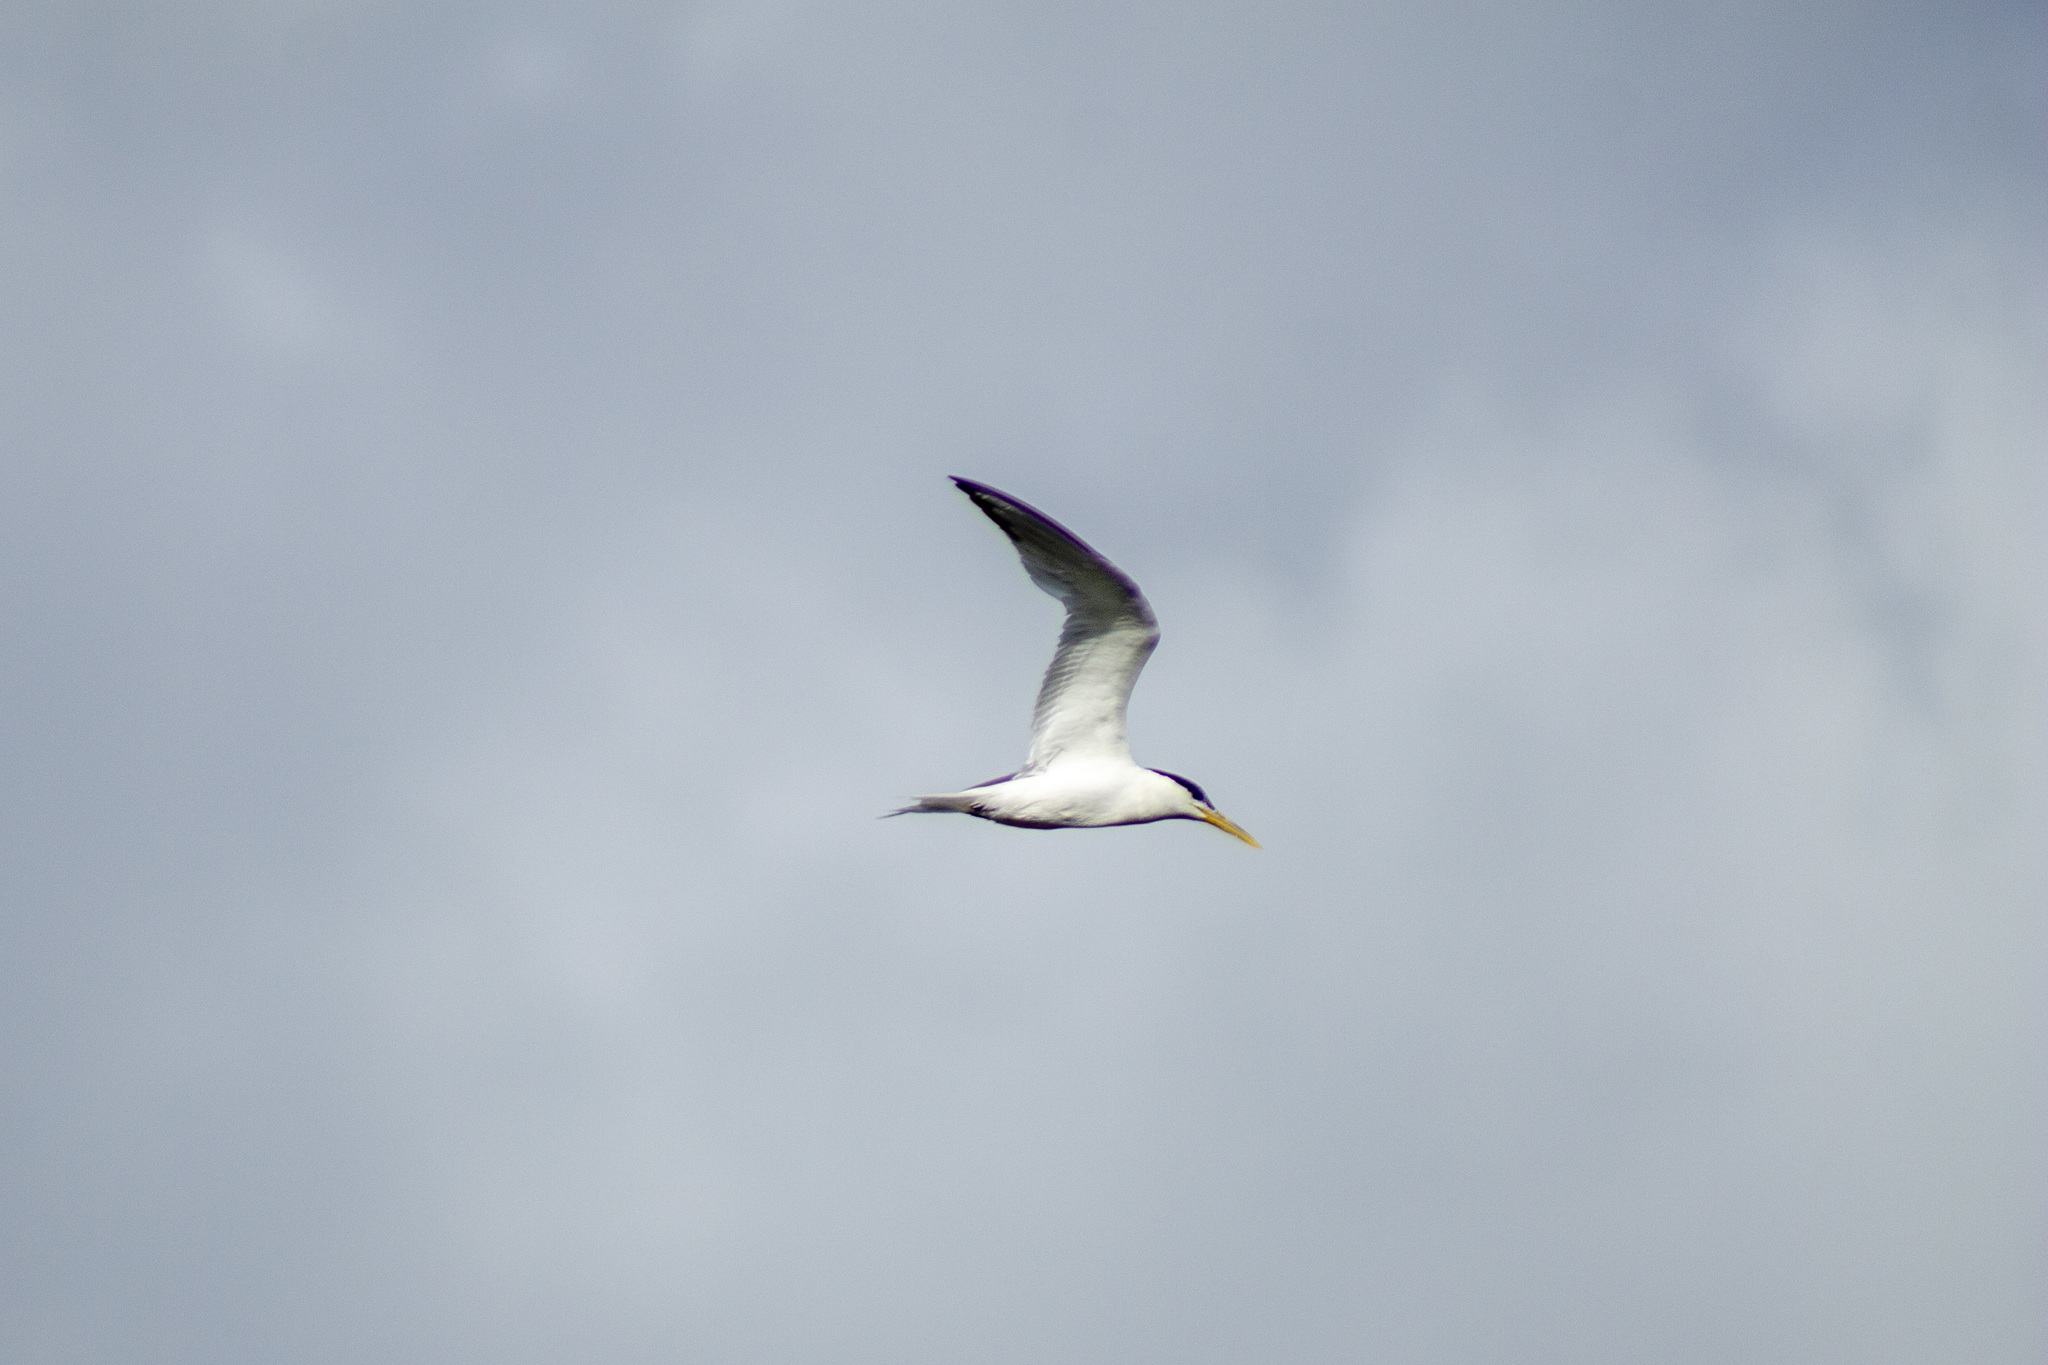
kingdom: Animalia
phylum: Chordata
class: Aves
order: Charadriiformes
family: Laridae
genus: Thalasseus
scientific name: Thalasseus sandvicensis
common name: Sandwich tern
